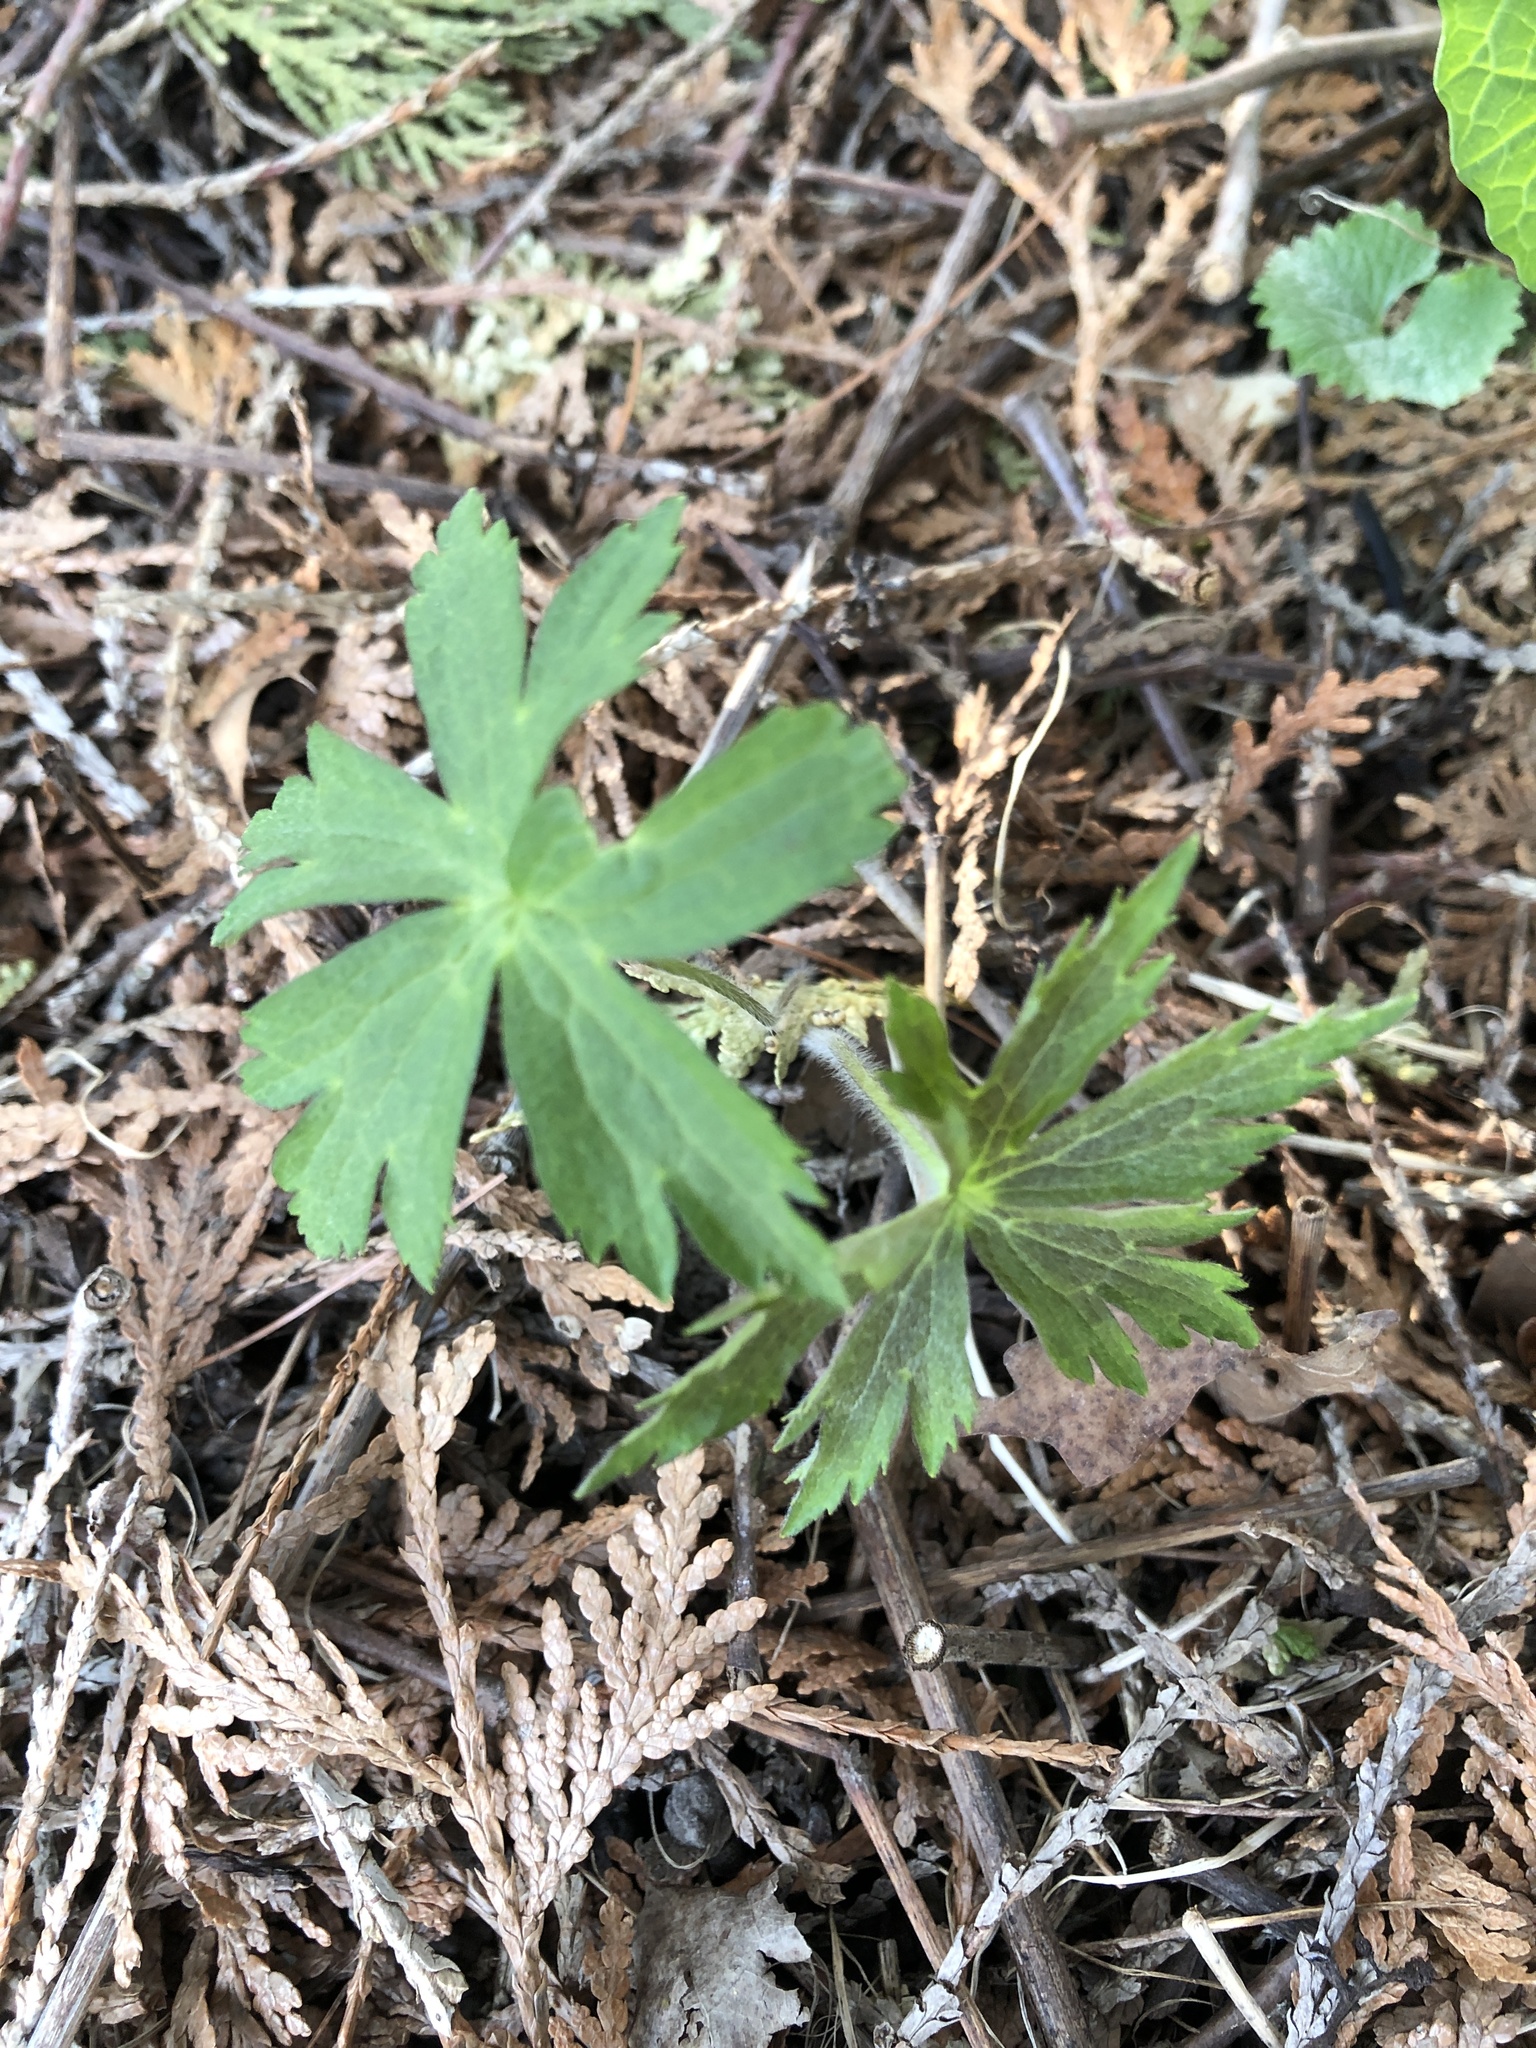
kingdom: Plantae
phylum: Tracheophyta
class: Magnoliopsida
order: Ranunculales
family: Ranunculaceae
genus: Anemonastrum
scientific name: Anemonastrum canadense
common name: Canada anemone
